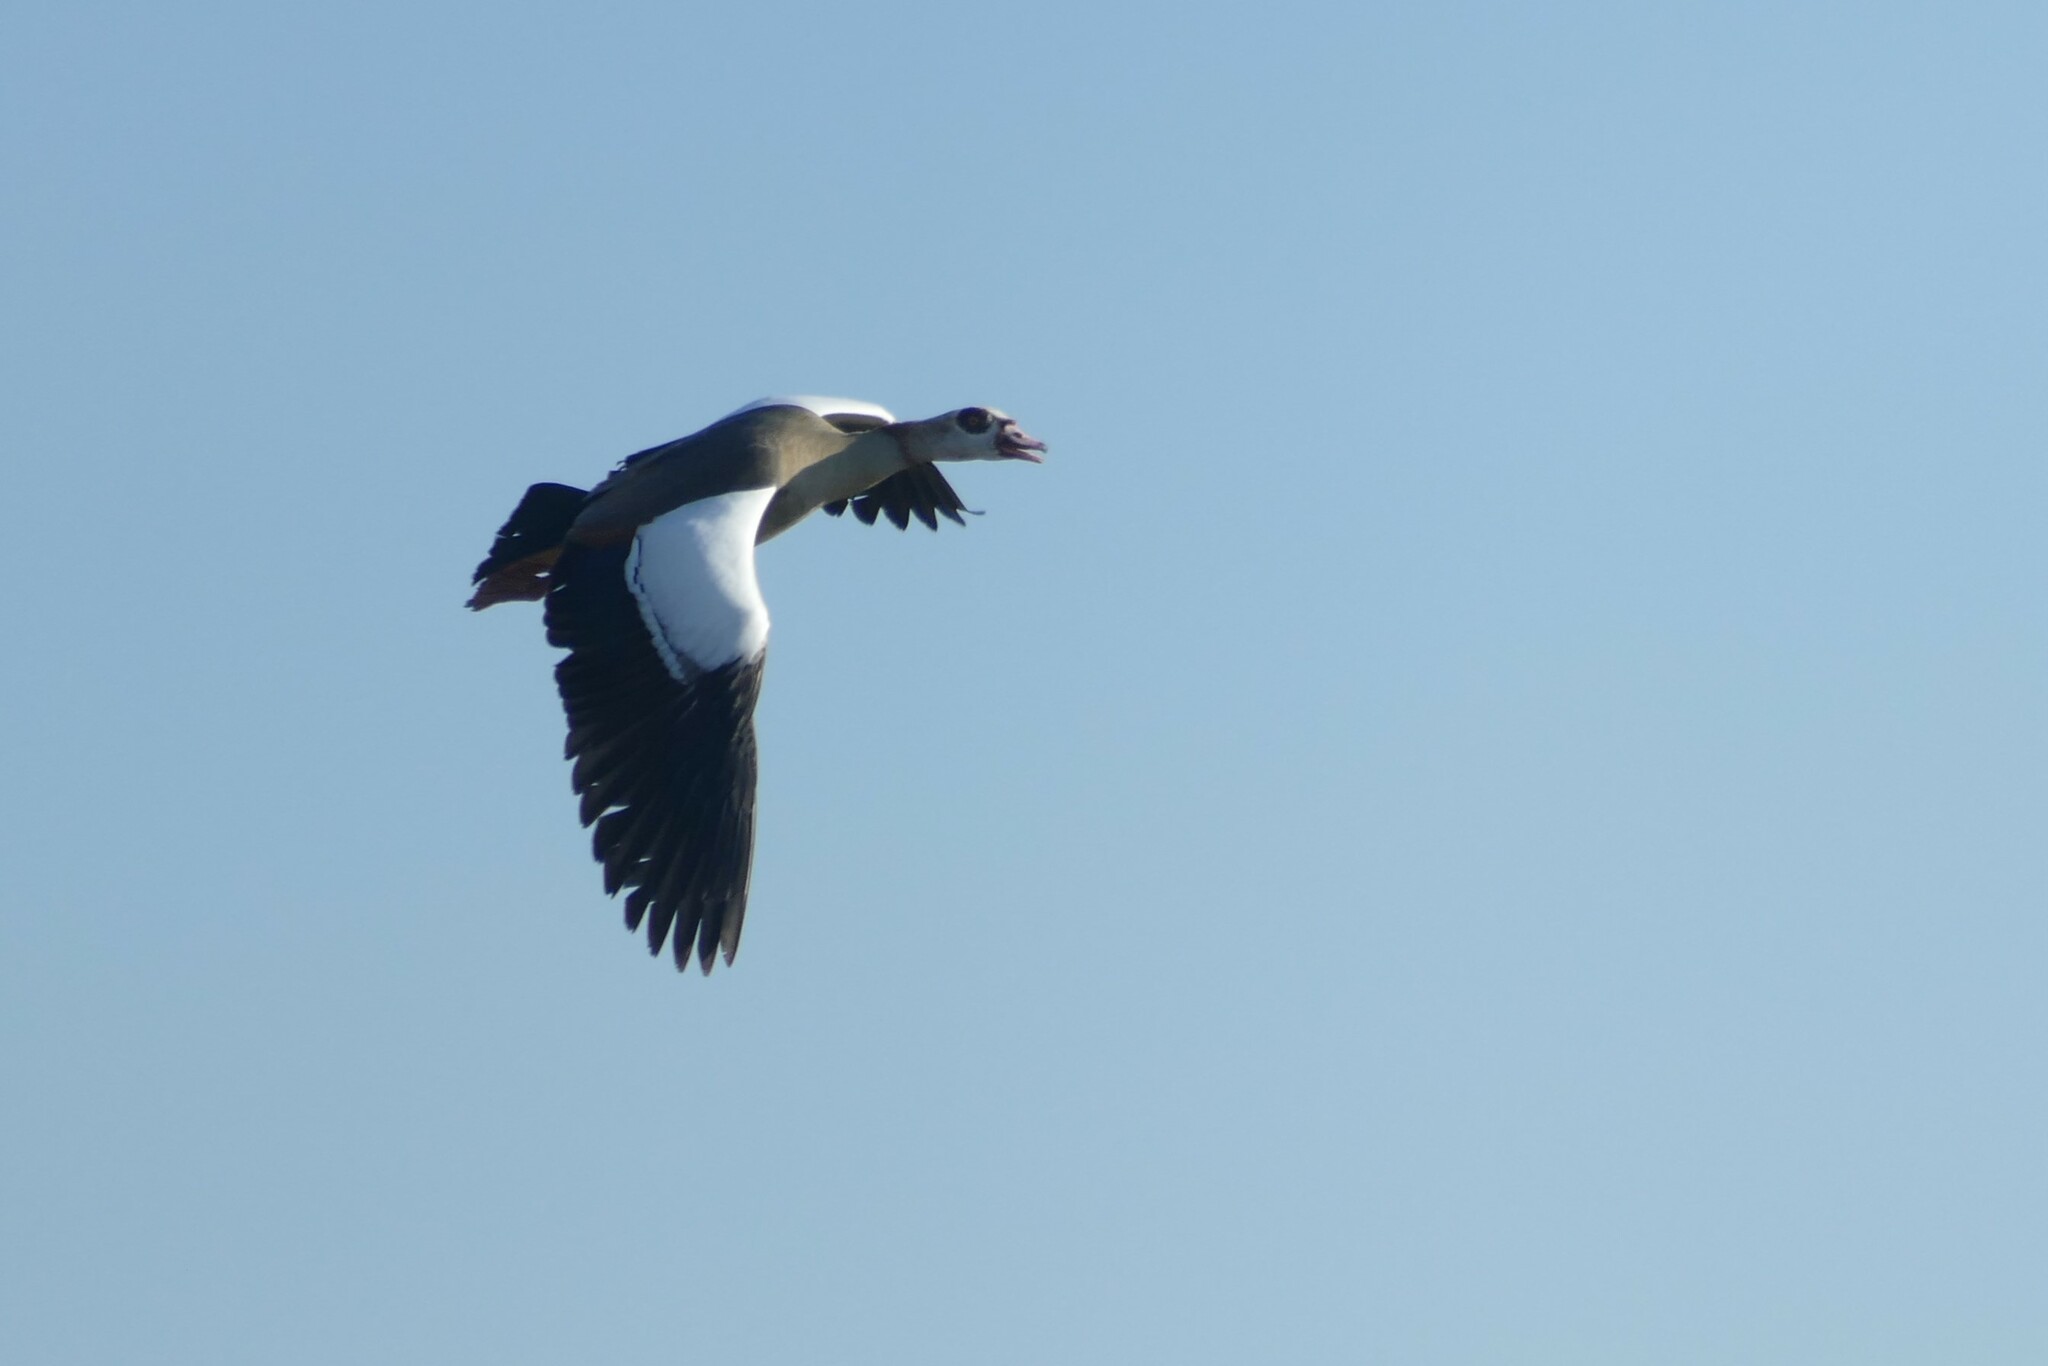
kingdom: Animalia
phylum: Chordata
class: Aves
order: Anseriformes
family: Anatidae
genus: Alopochen
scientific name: Alopochen aegyptiaca
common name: Egyptian goose
